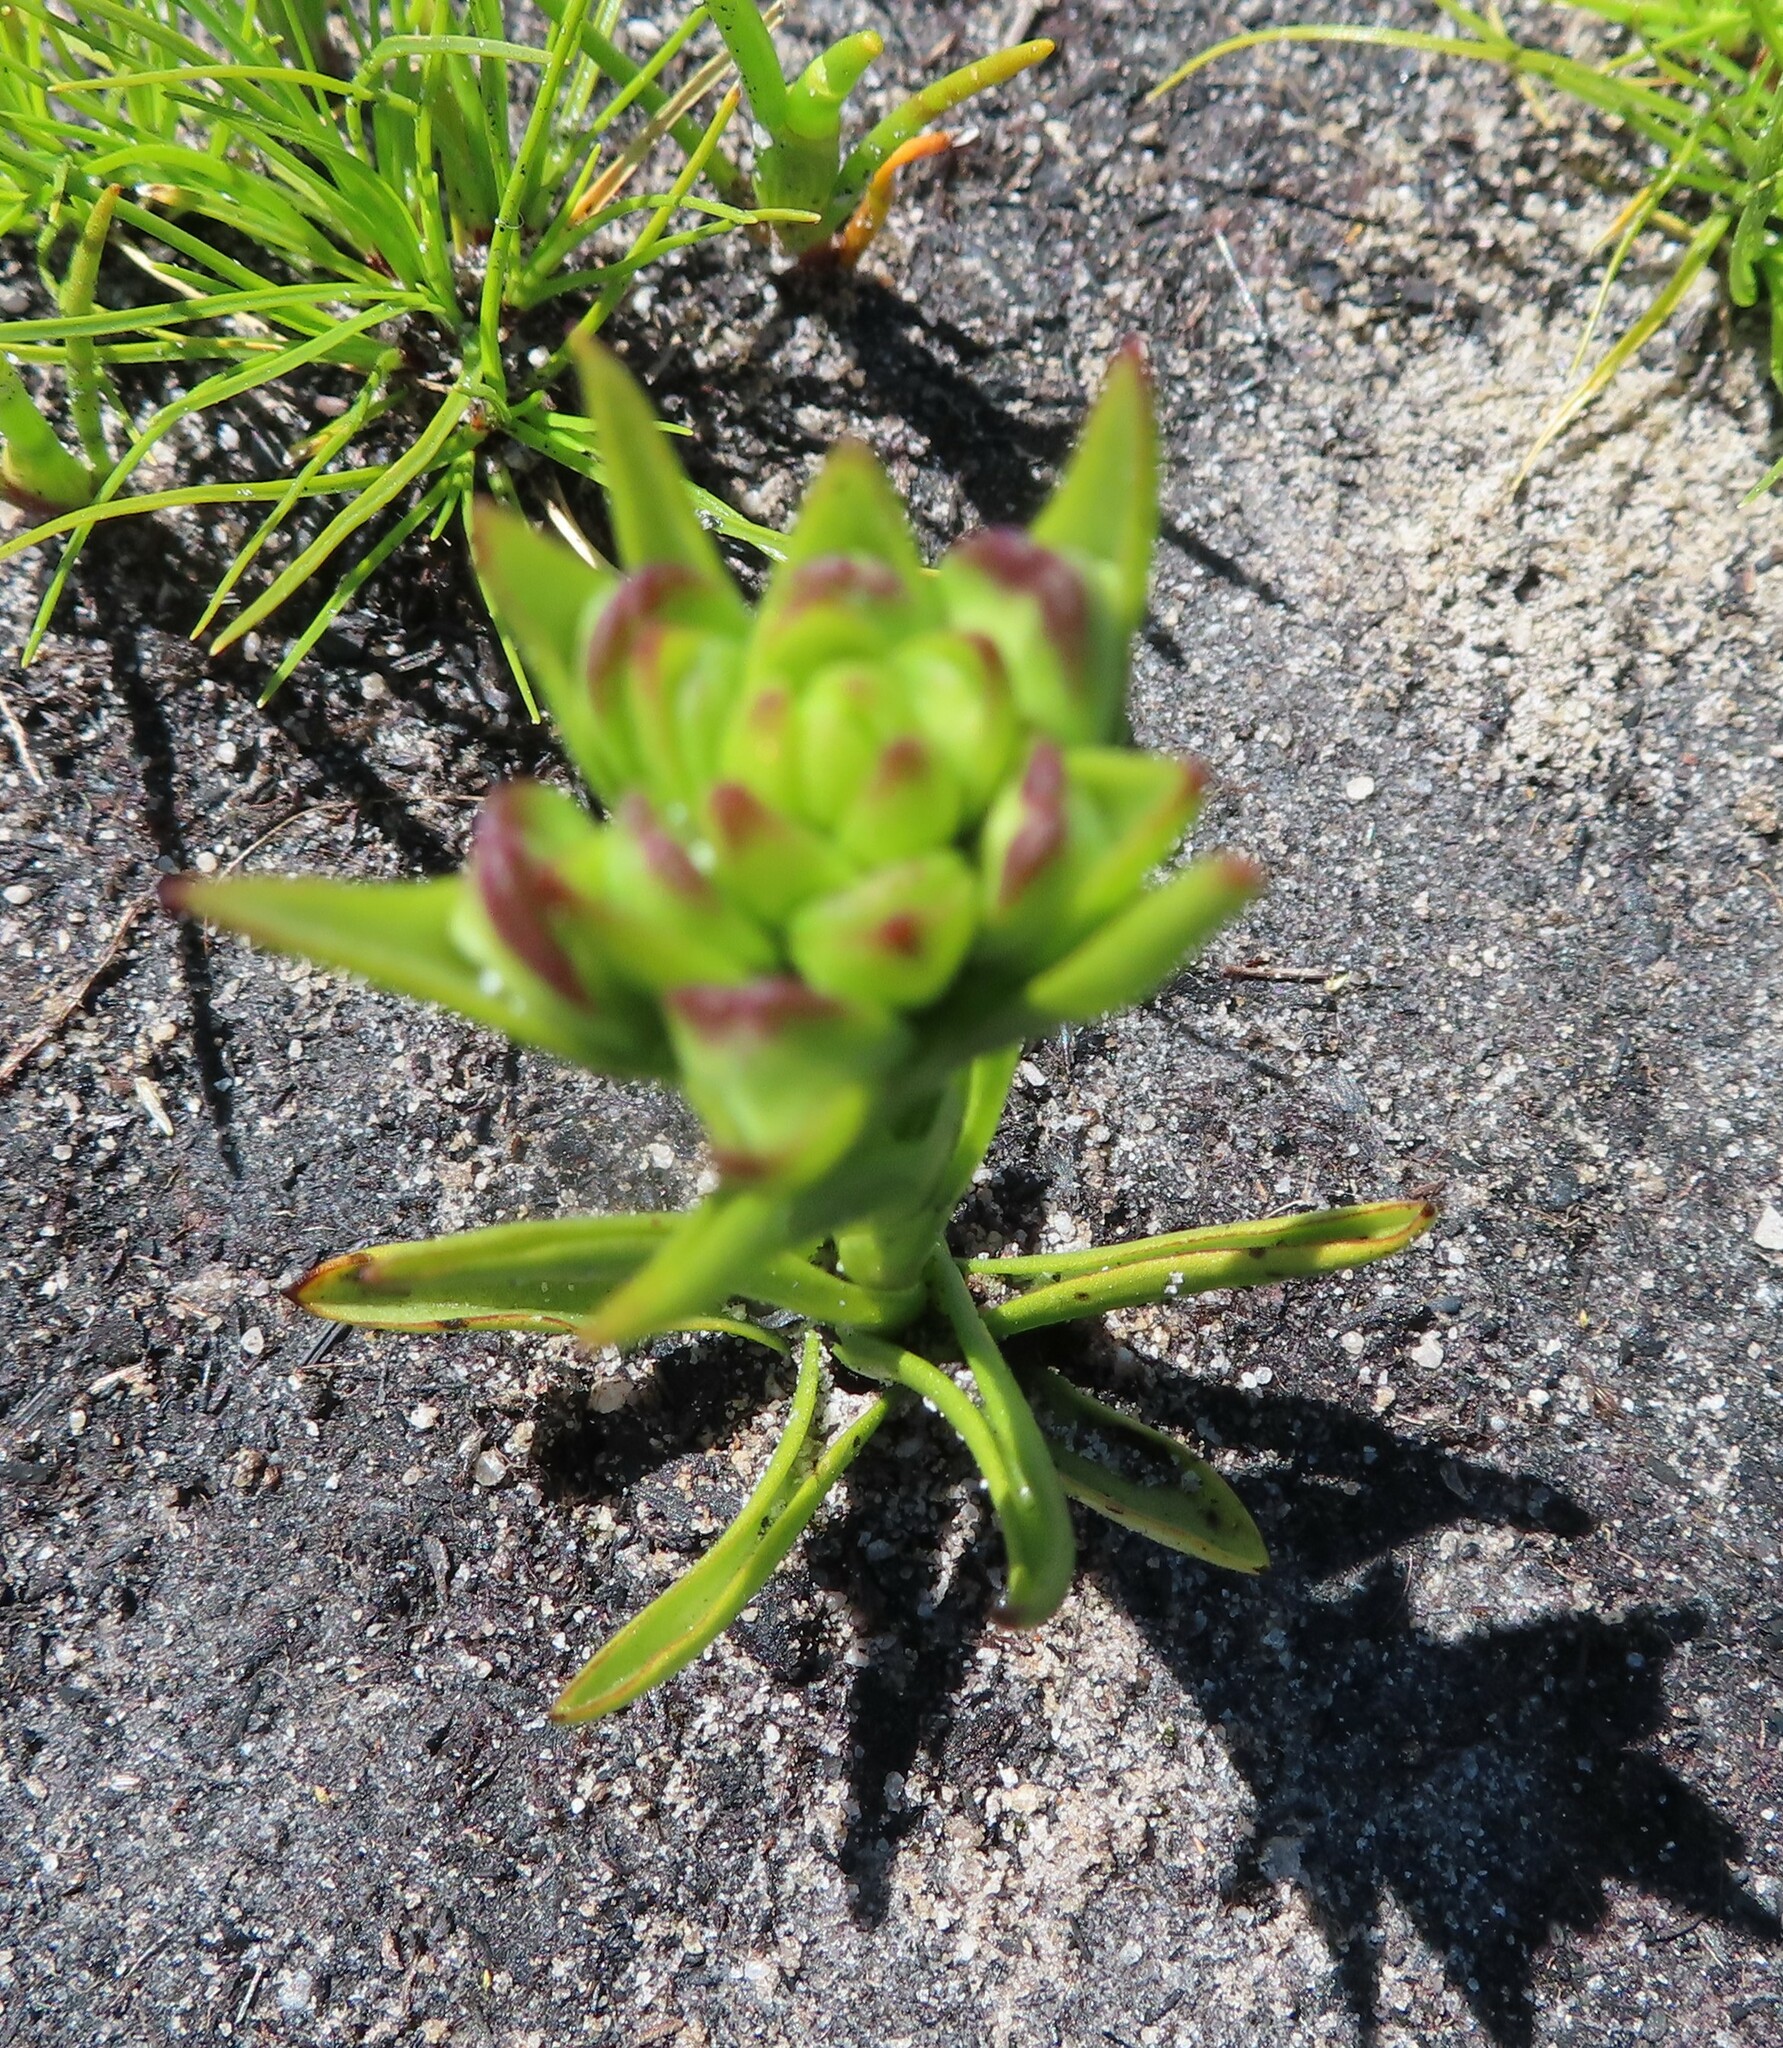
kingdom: Plantae
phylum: Tracheophyta
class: Liliopsida
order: Asparagales
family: Orchidaceae
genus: Disa
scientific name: Disa bivalvata
